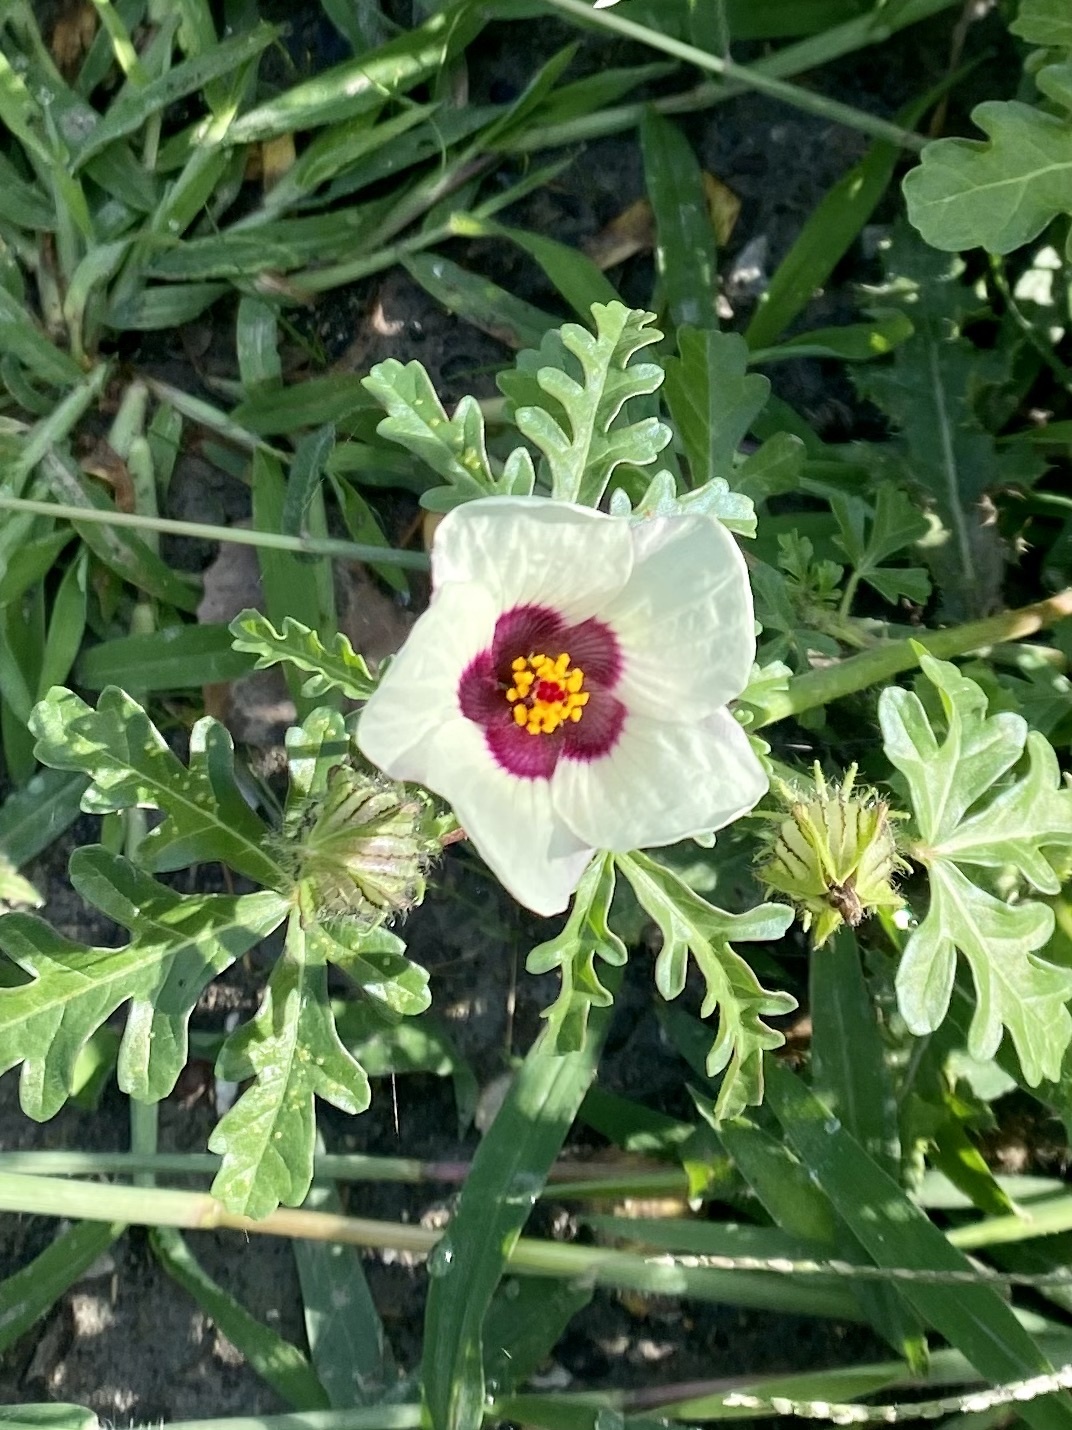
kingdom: Plantae
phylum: Tracheophyta
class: Magnoliopsida
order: Malvales
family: Malvaceae
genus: Hibiscus
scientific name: Hibiscus trionum
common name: Bladder ketmia
